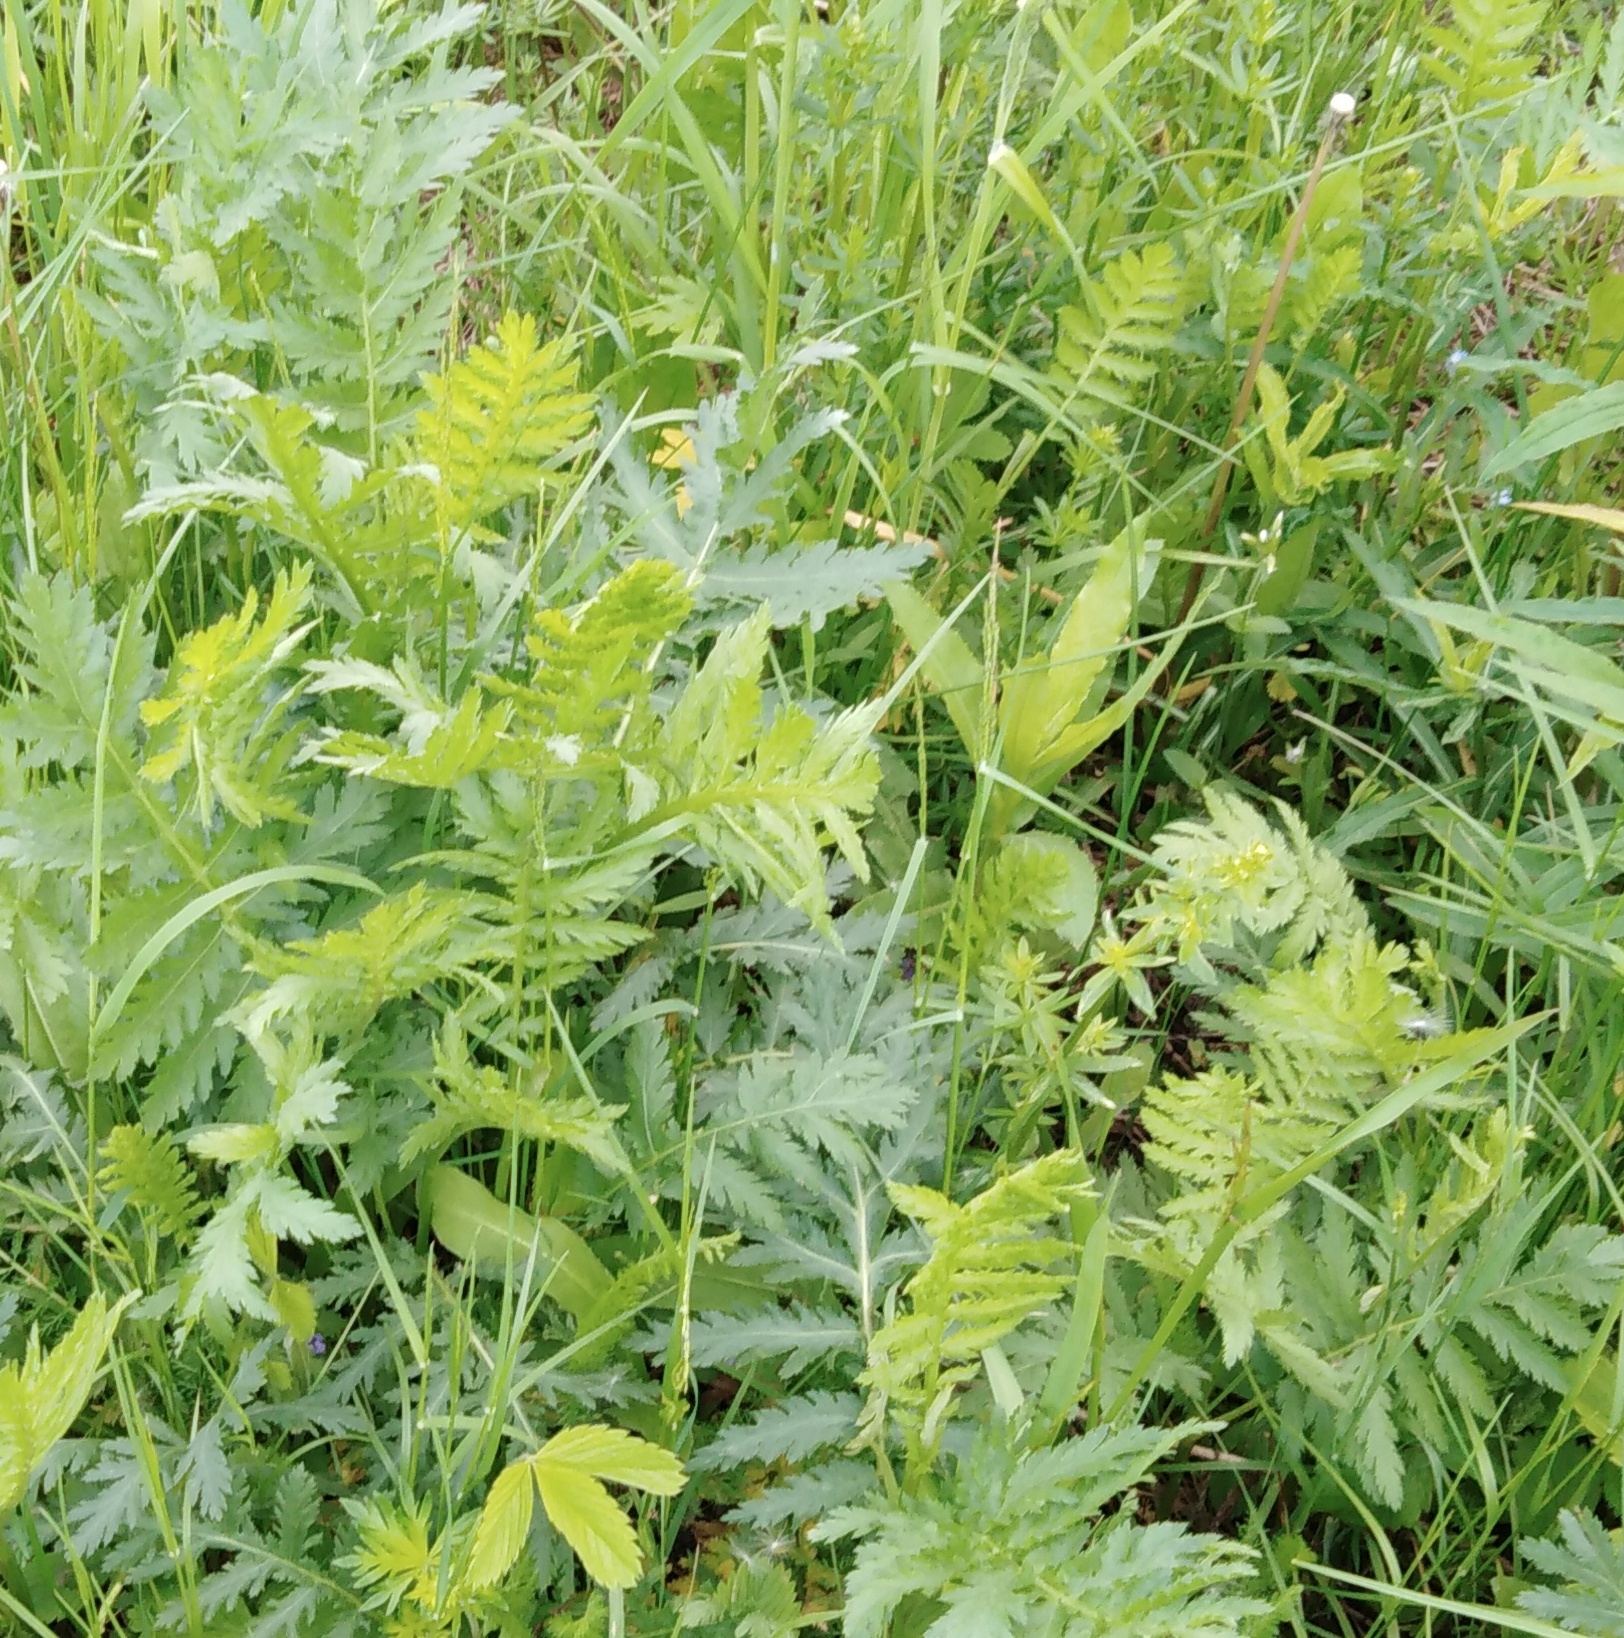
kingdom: Plantae
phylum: Tracheophyta
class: Magnoliopsida
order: Asterales
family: Asteraceae
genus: Tanacetum
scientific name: Tanacetum vulgare
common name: Common tansy
